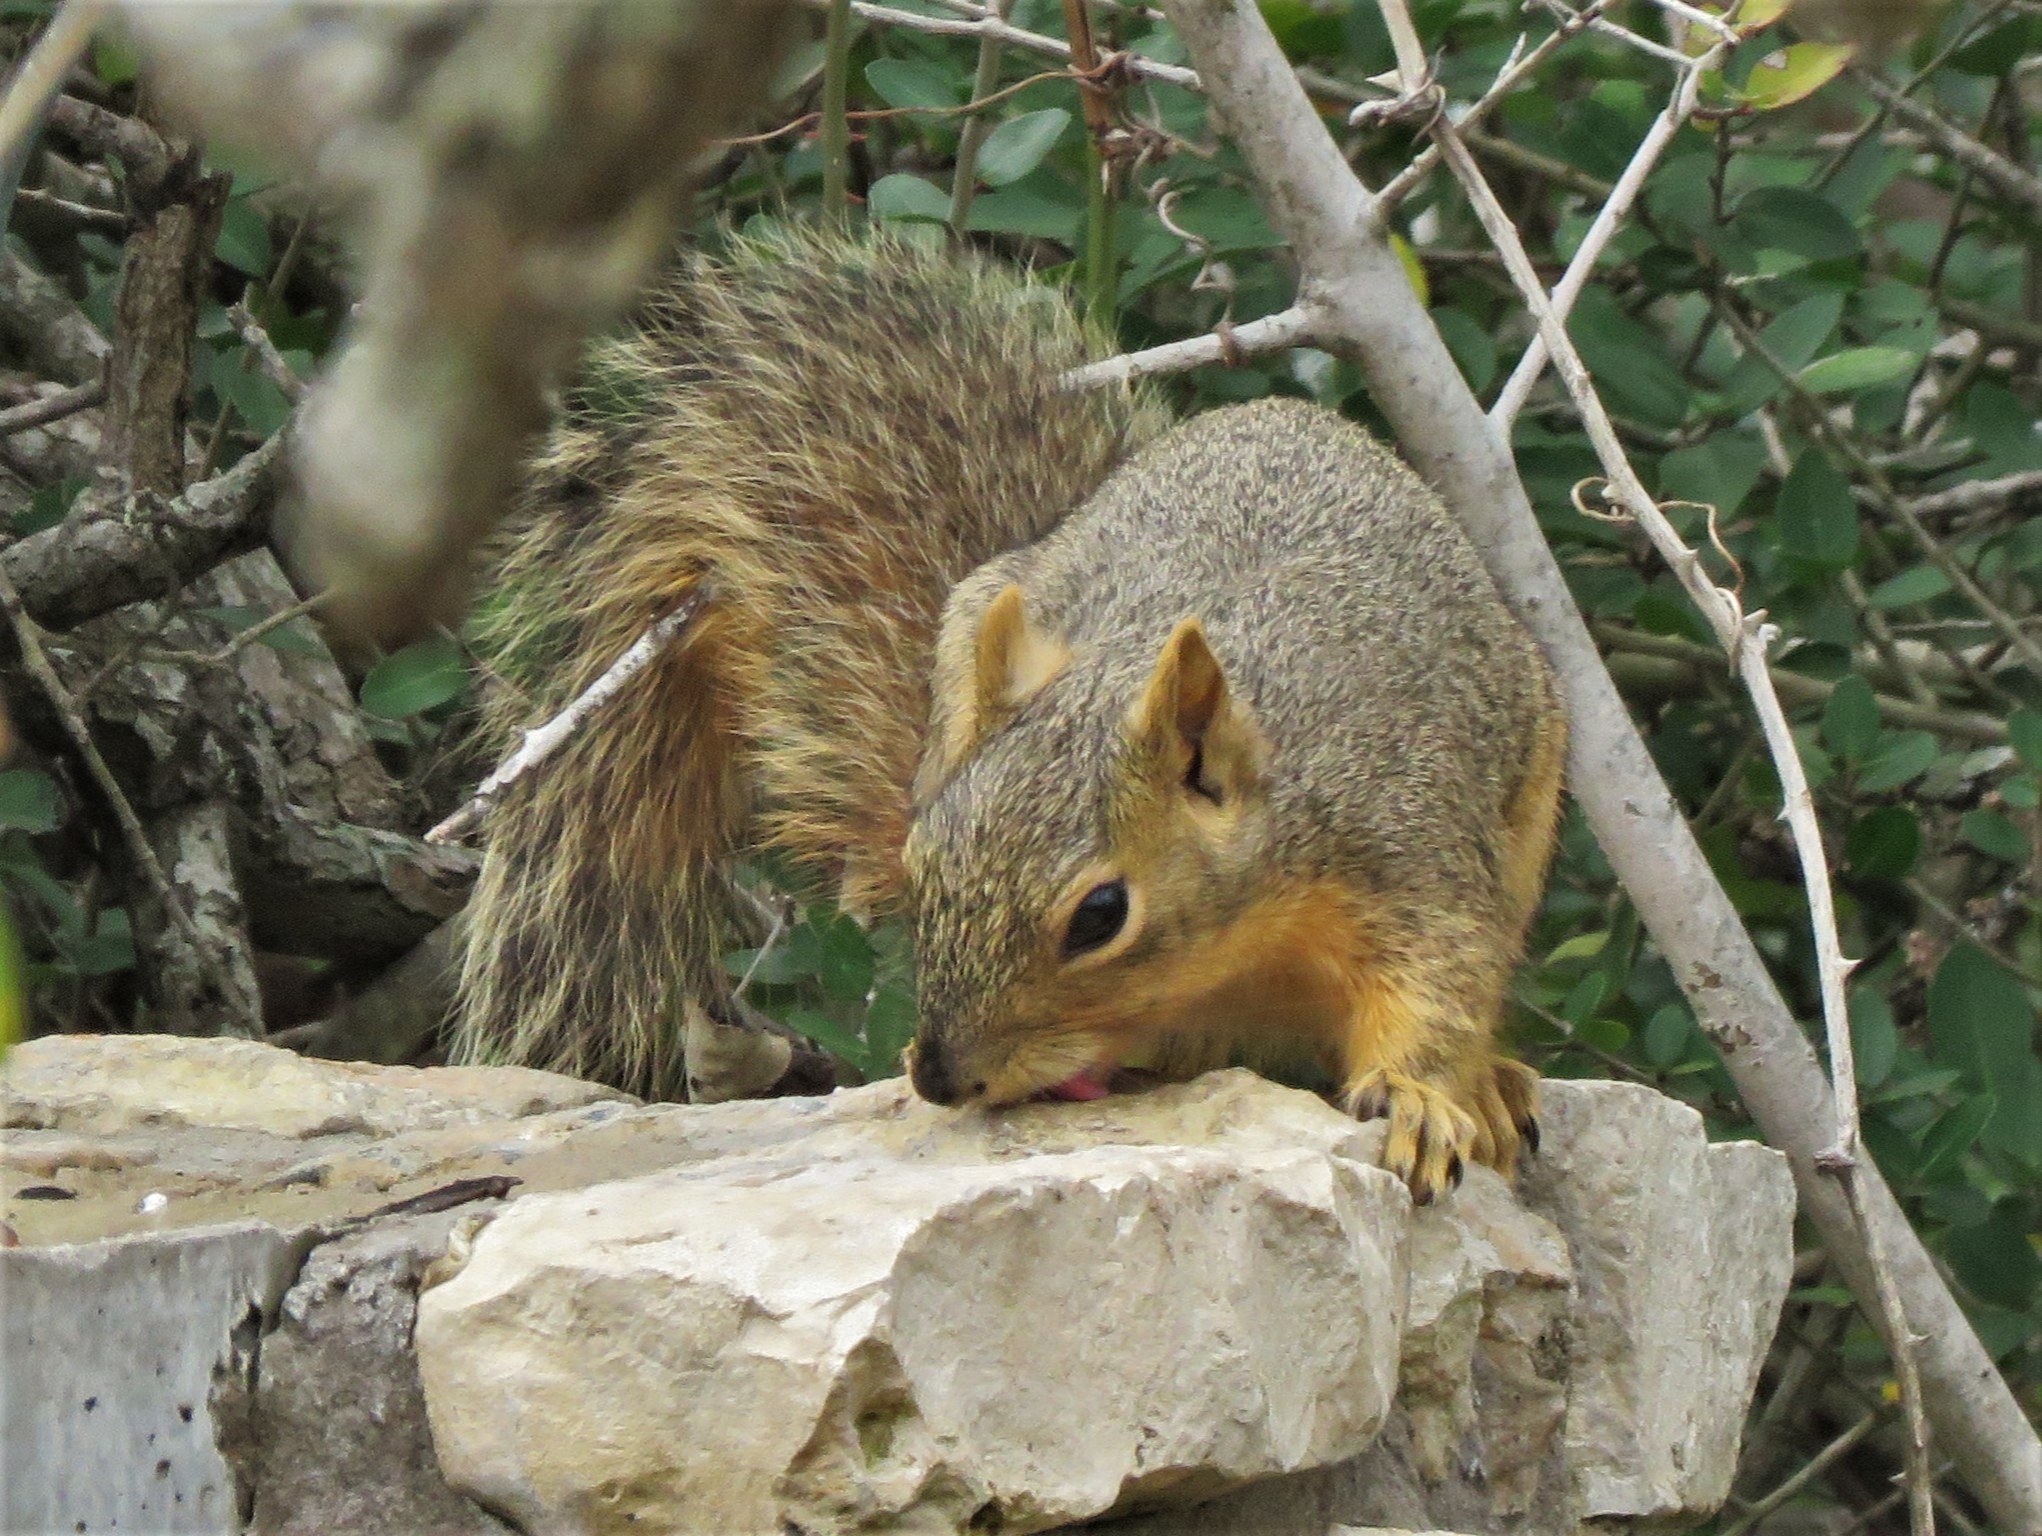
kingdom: Animalia
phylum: Chordata
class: Mammalia
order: Rodentia
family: Sciuridae
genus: Sciurus
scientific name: Sciurus niger
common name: Fox squirrel
